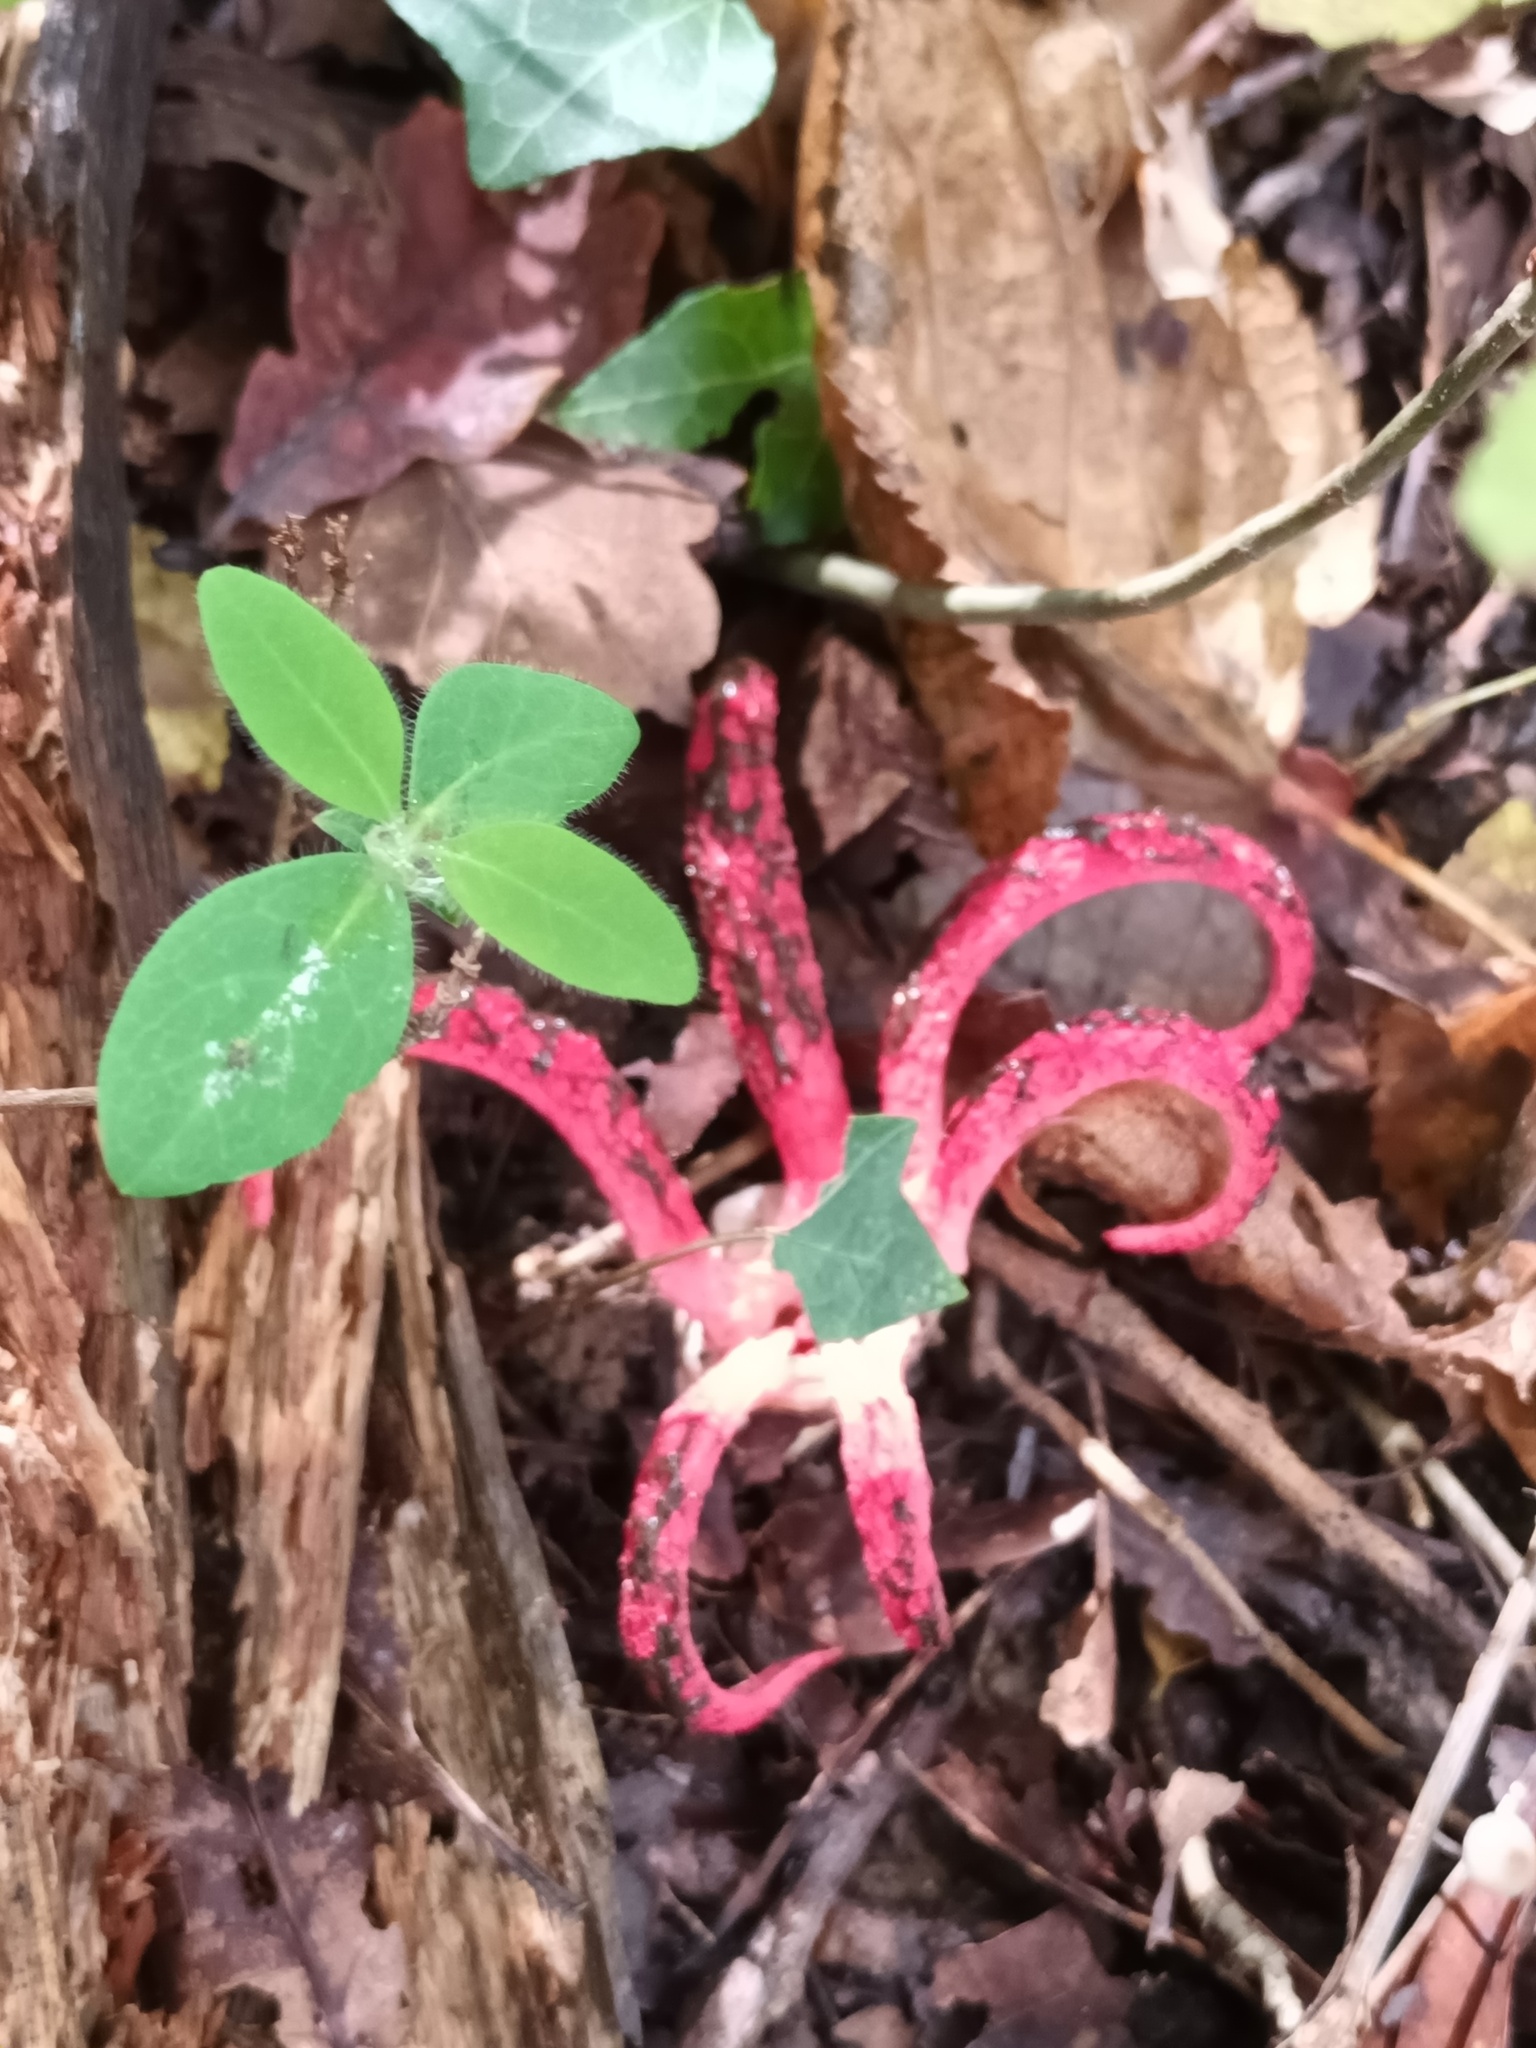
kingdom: Fungi
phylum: Basidiomycota
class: Agaricomycetes
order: Phallales
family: Phallaceae
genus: Clathrus
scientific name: Clathrus archeri
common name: Devil's fingers
